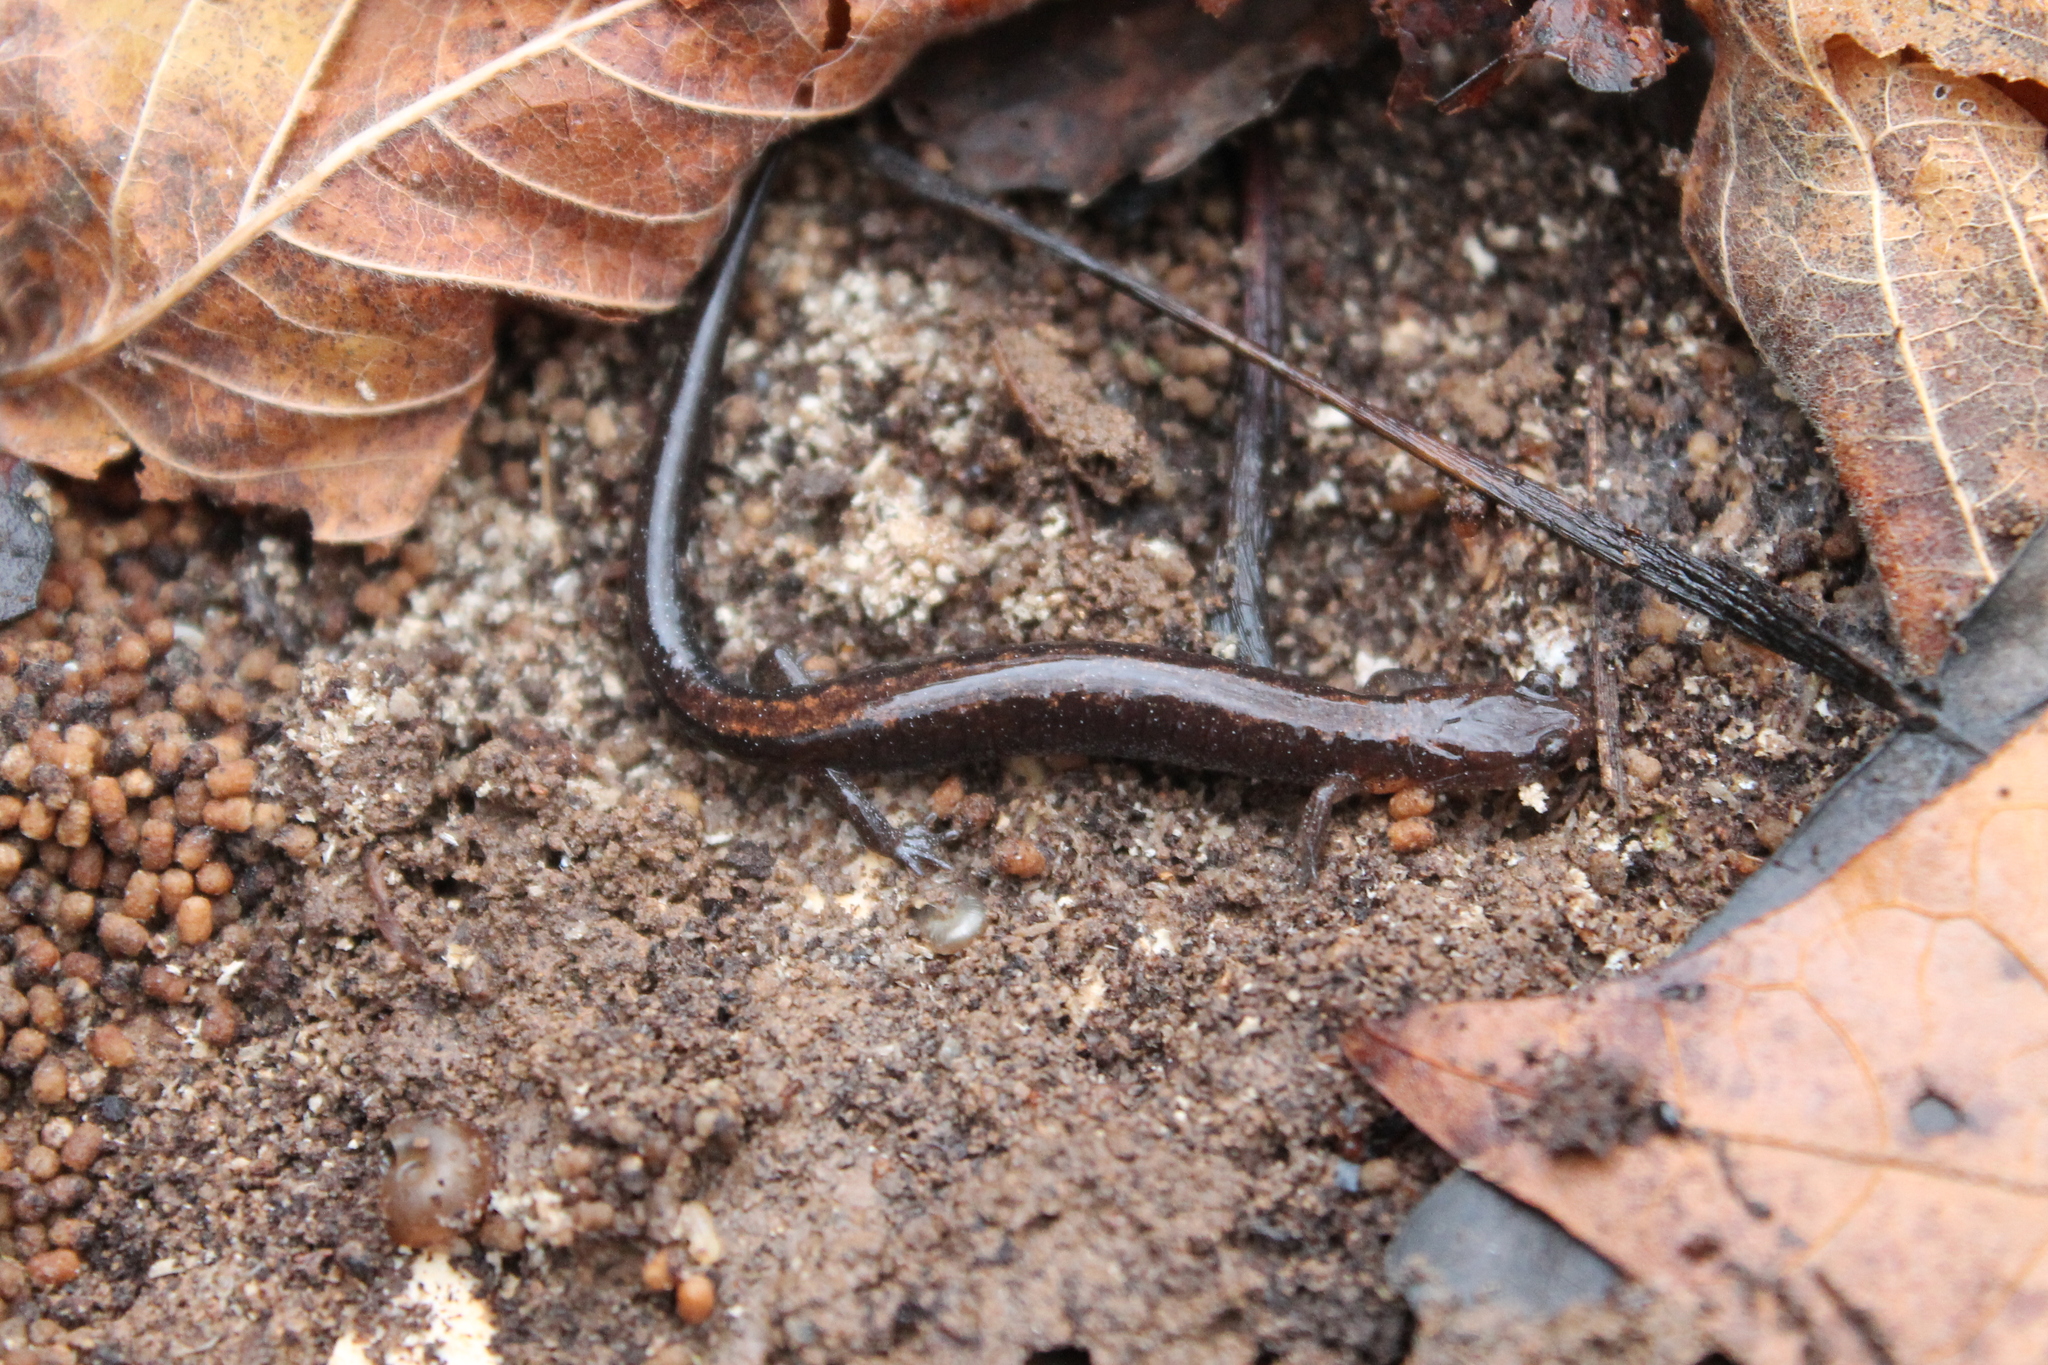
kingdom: Animalia
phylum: Chordata
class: Amphibia
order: Caudata
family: Plethodontidae
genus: Plethodon
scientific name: Plethodon dorsalis
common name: Northern zigzag salamander
